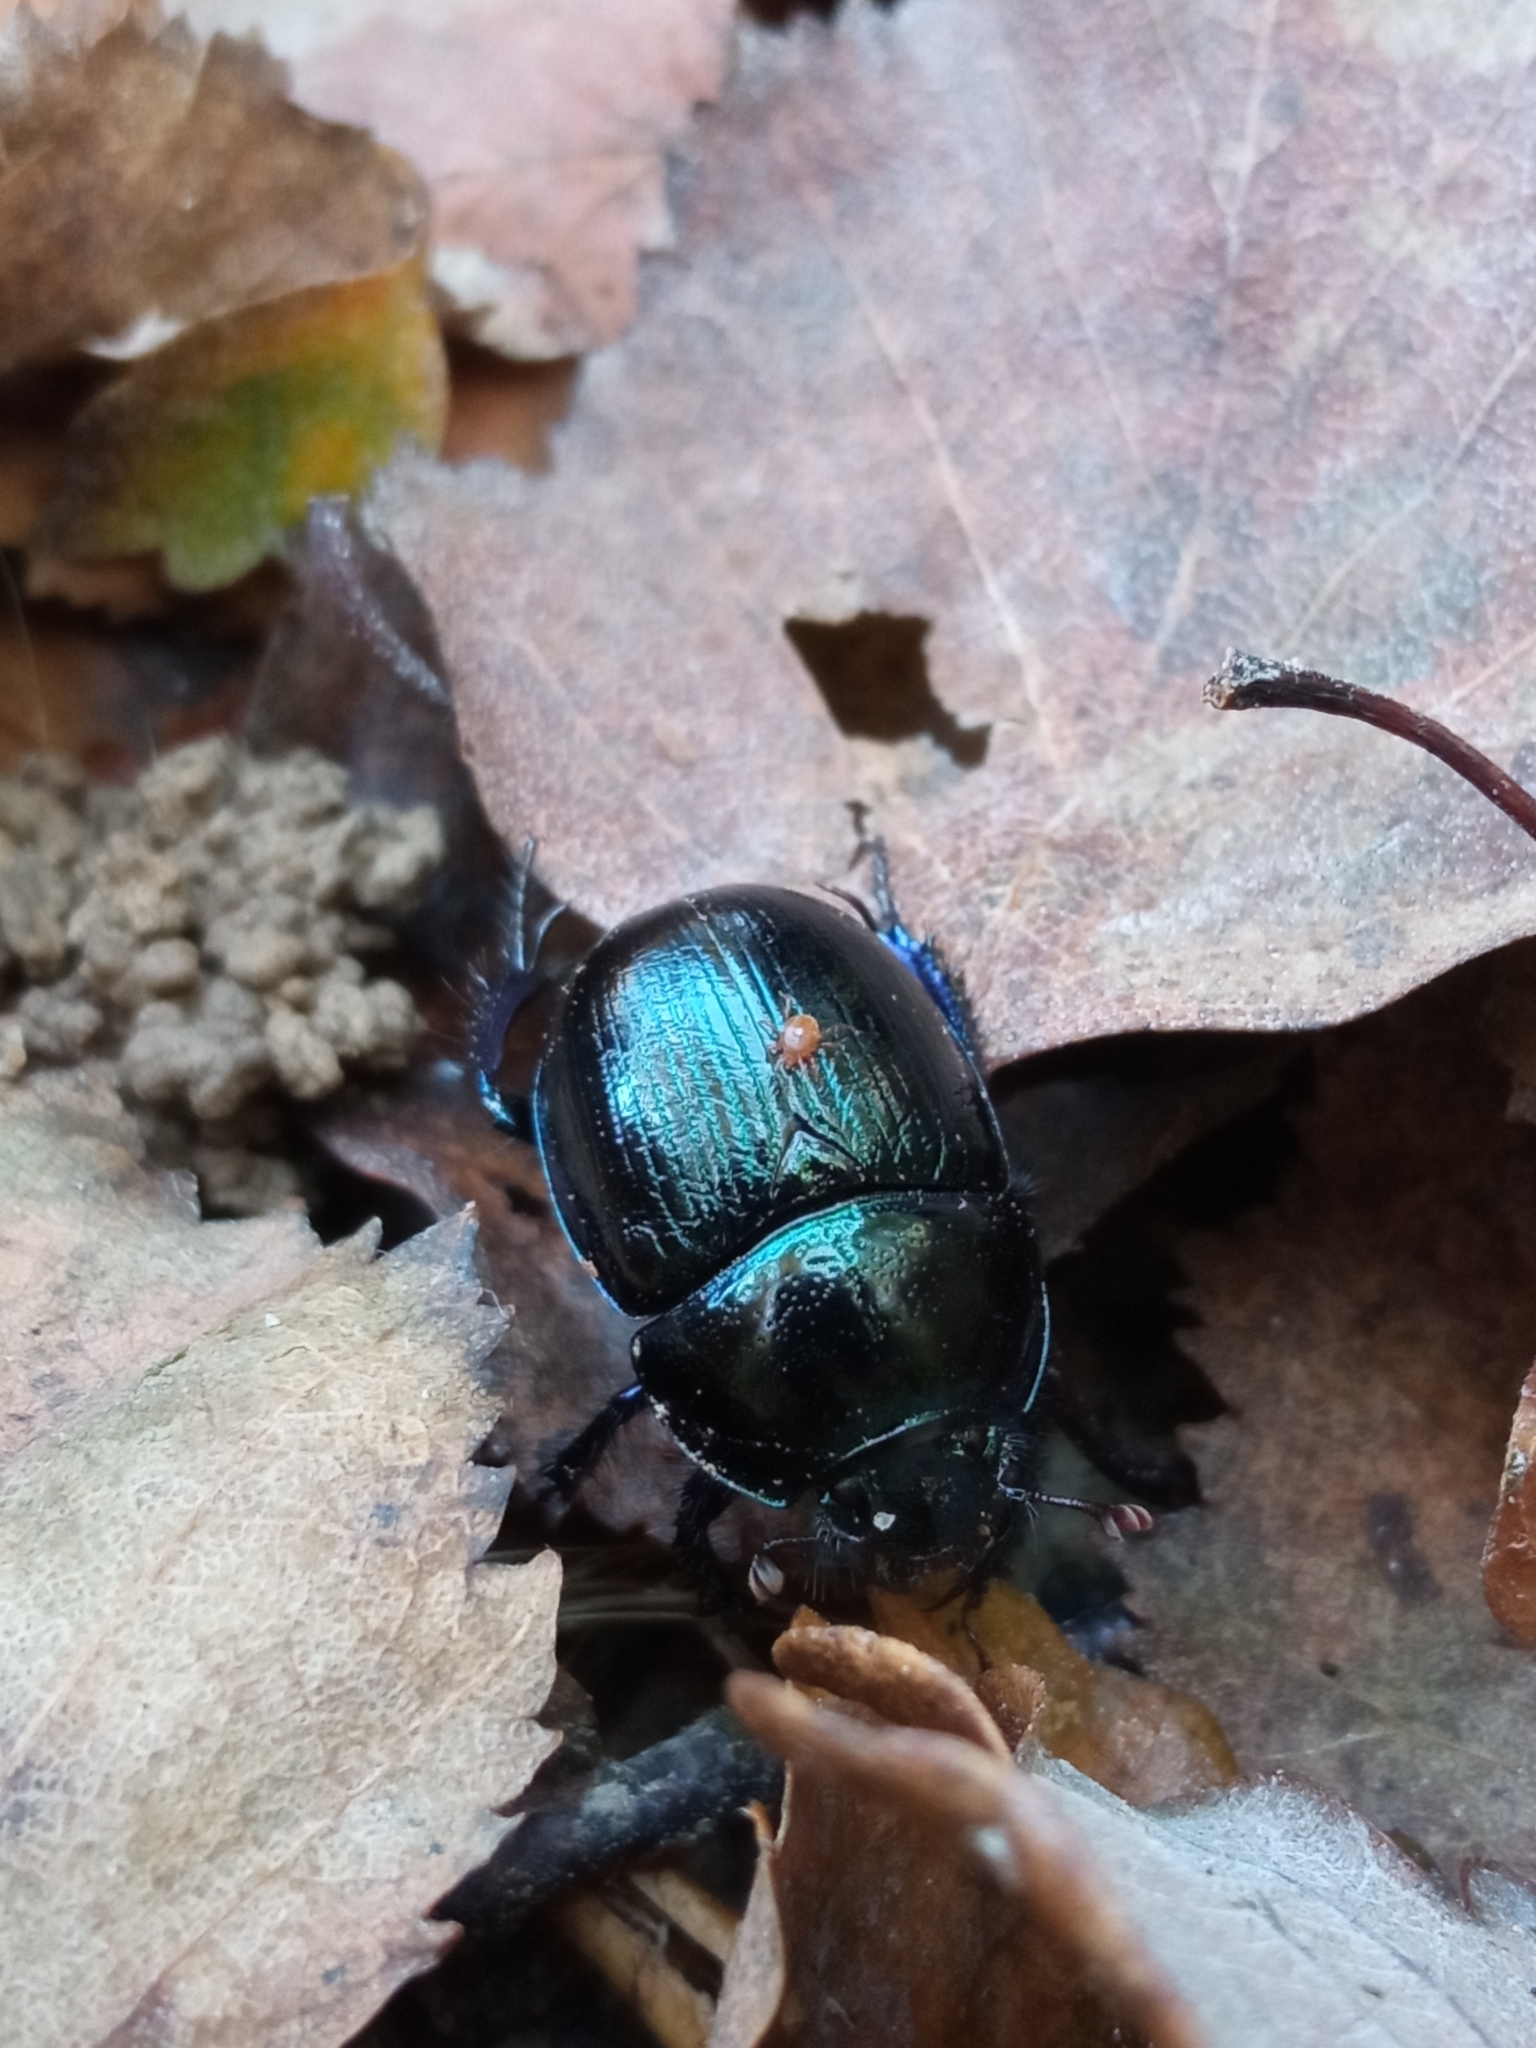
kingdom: Animalia
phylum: Arthropoda
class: Insecta
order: Coleoptera
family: Geotrupidae
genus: Anoplotrupes
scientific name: Anoplotrupes stercorosus
